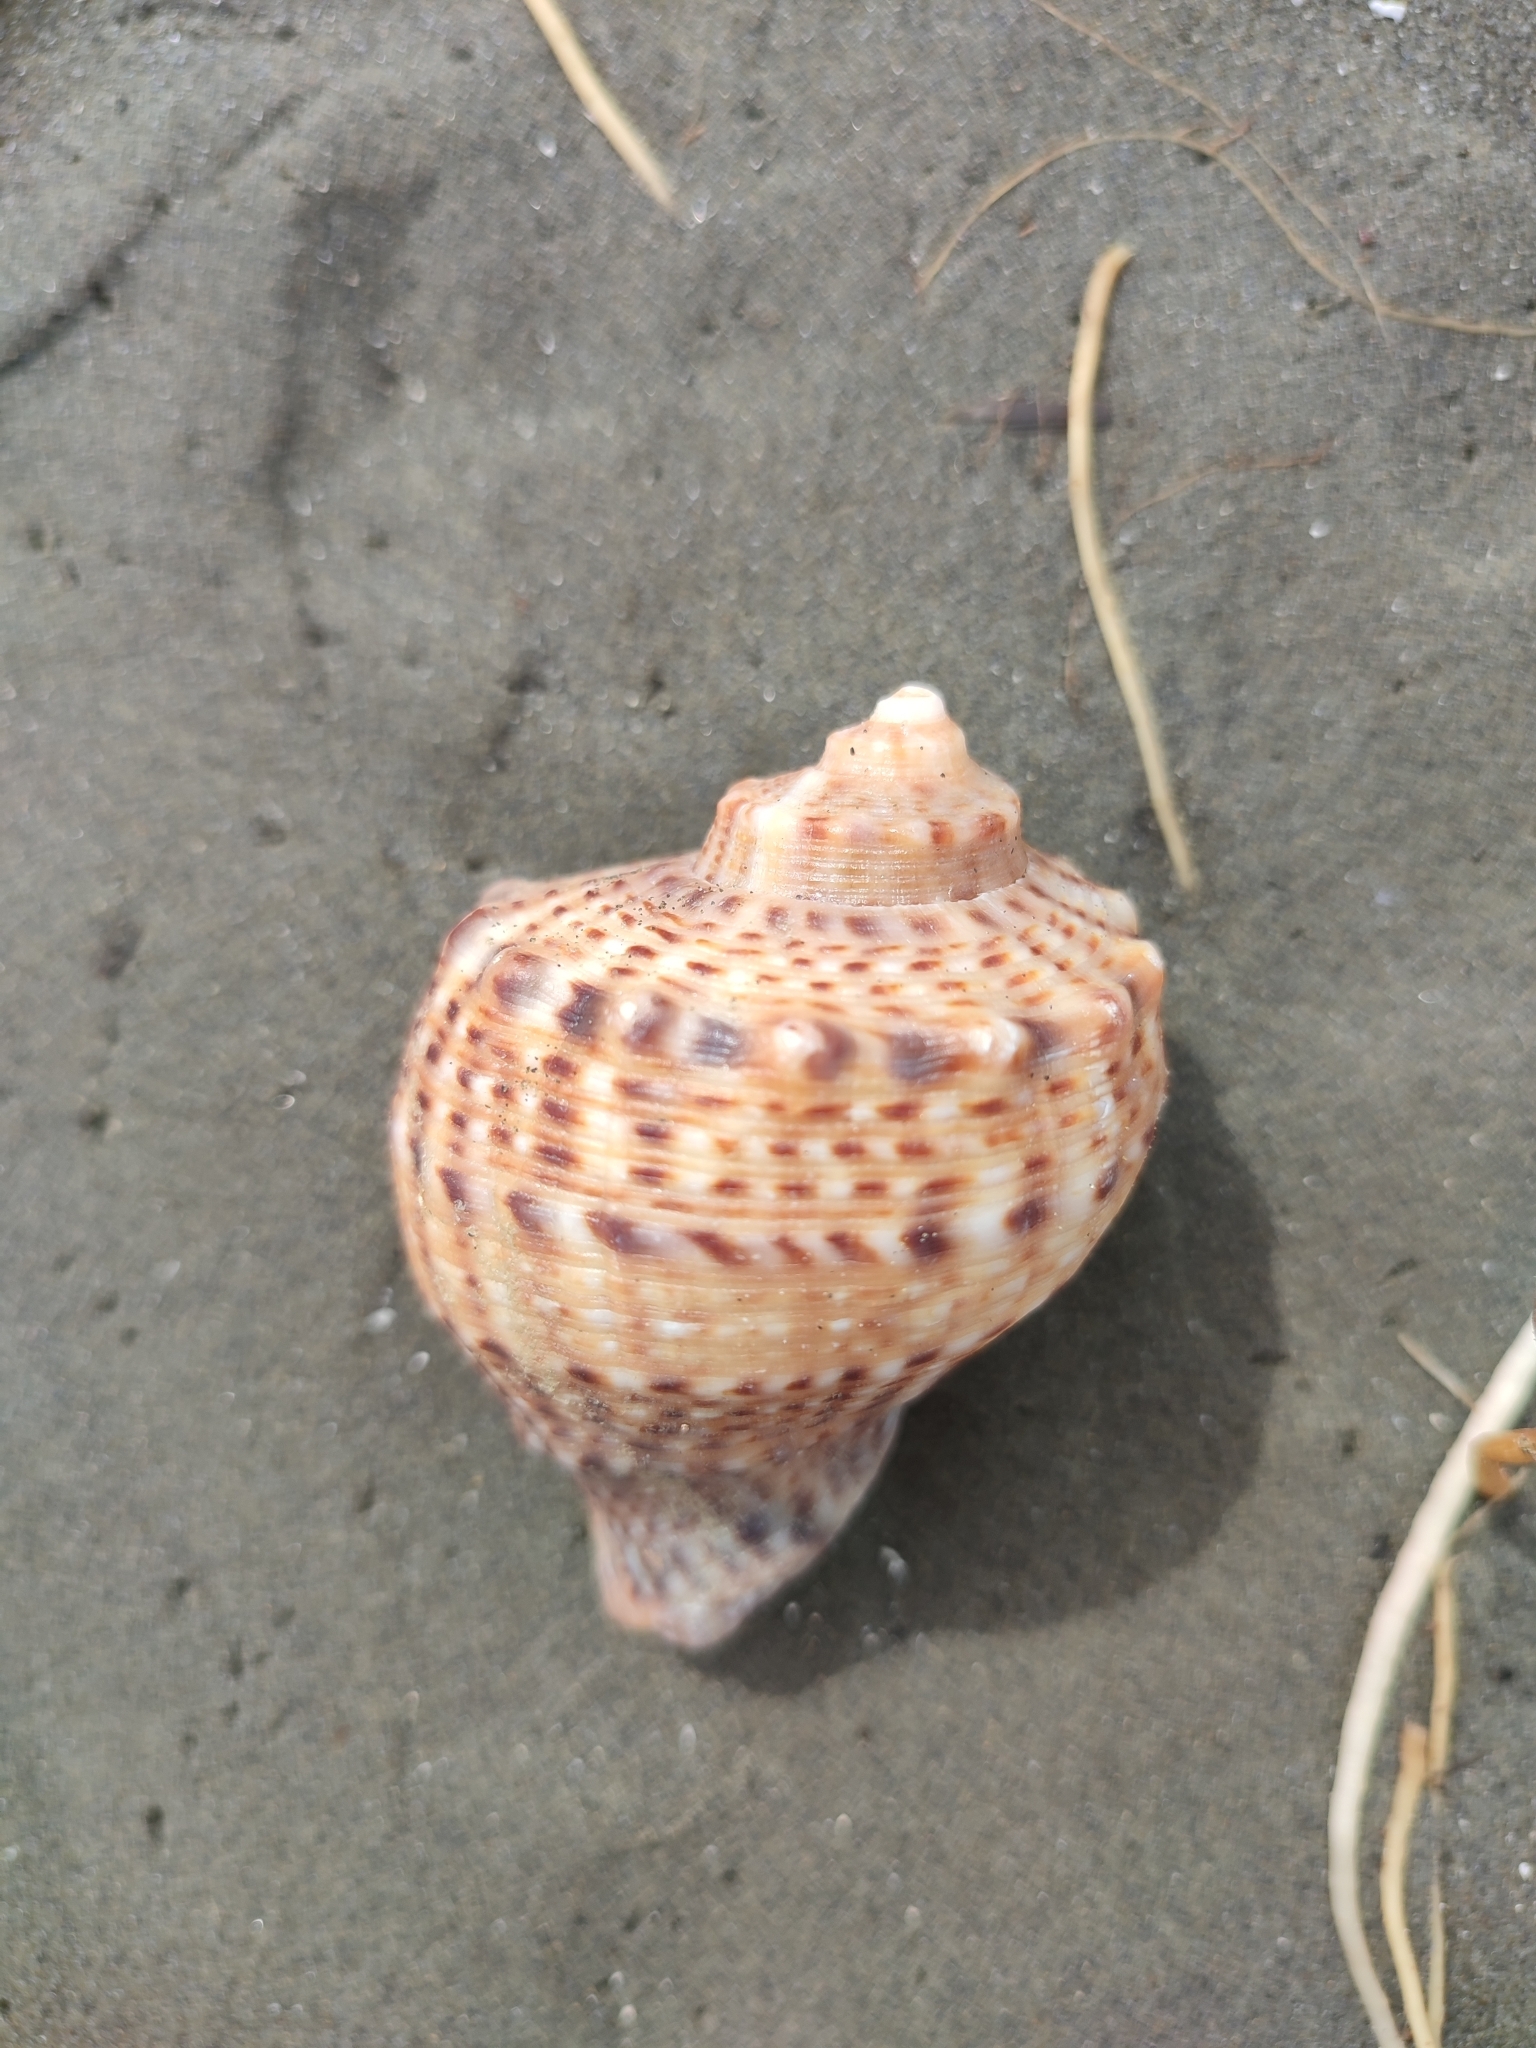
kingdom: Animalia
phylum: Mollusca
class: Gastropoda
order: Neogastropoda
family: Muricidae
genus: Rapana
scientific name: Rapana venosa
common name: Veined rapa whelk
